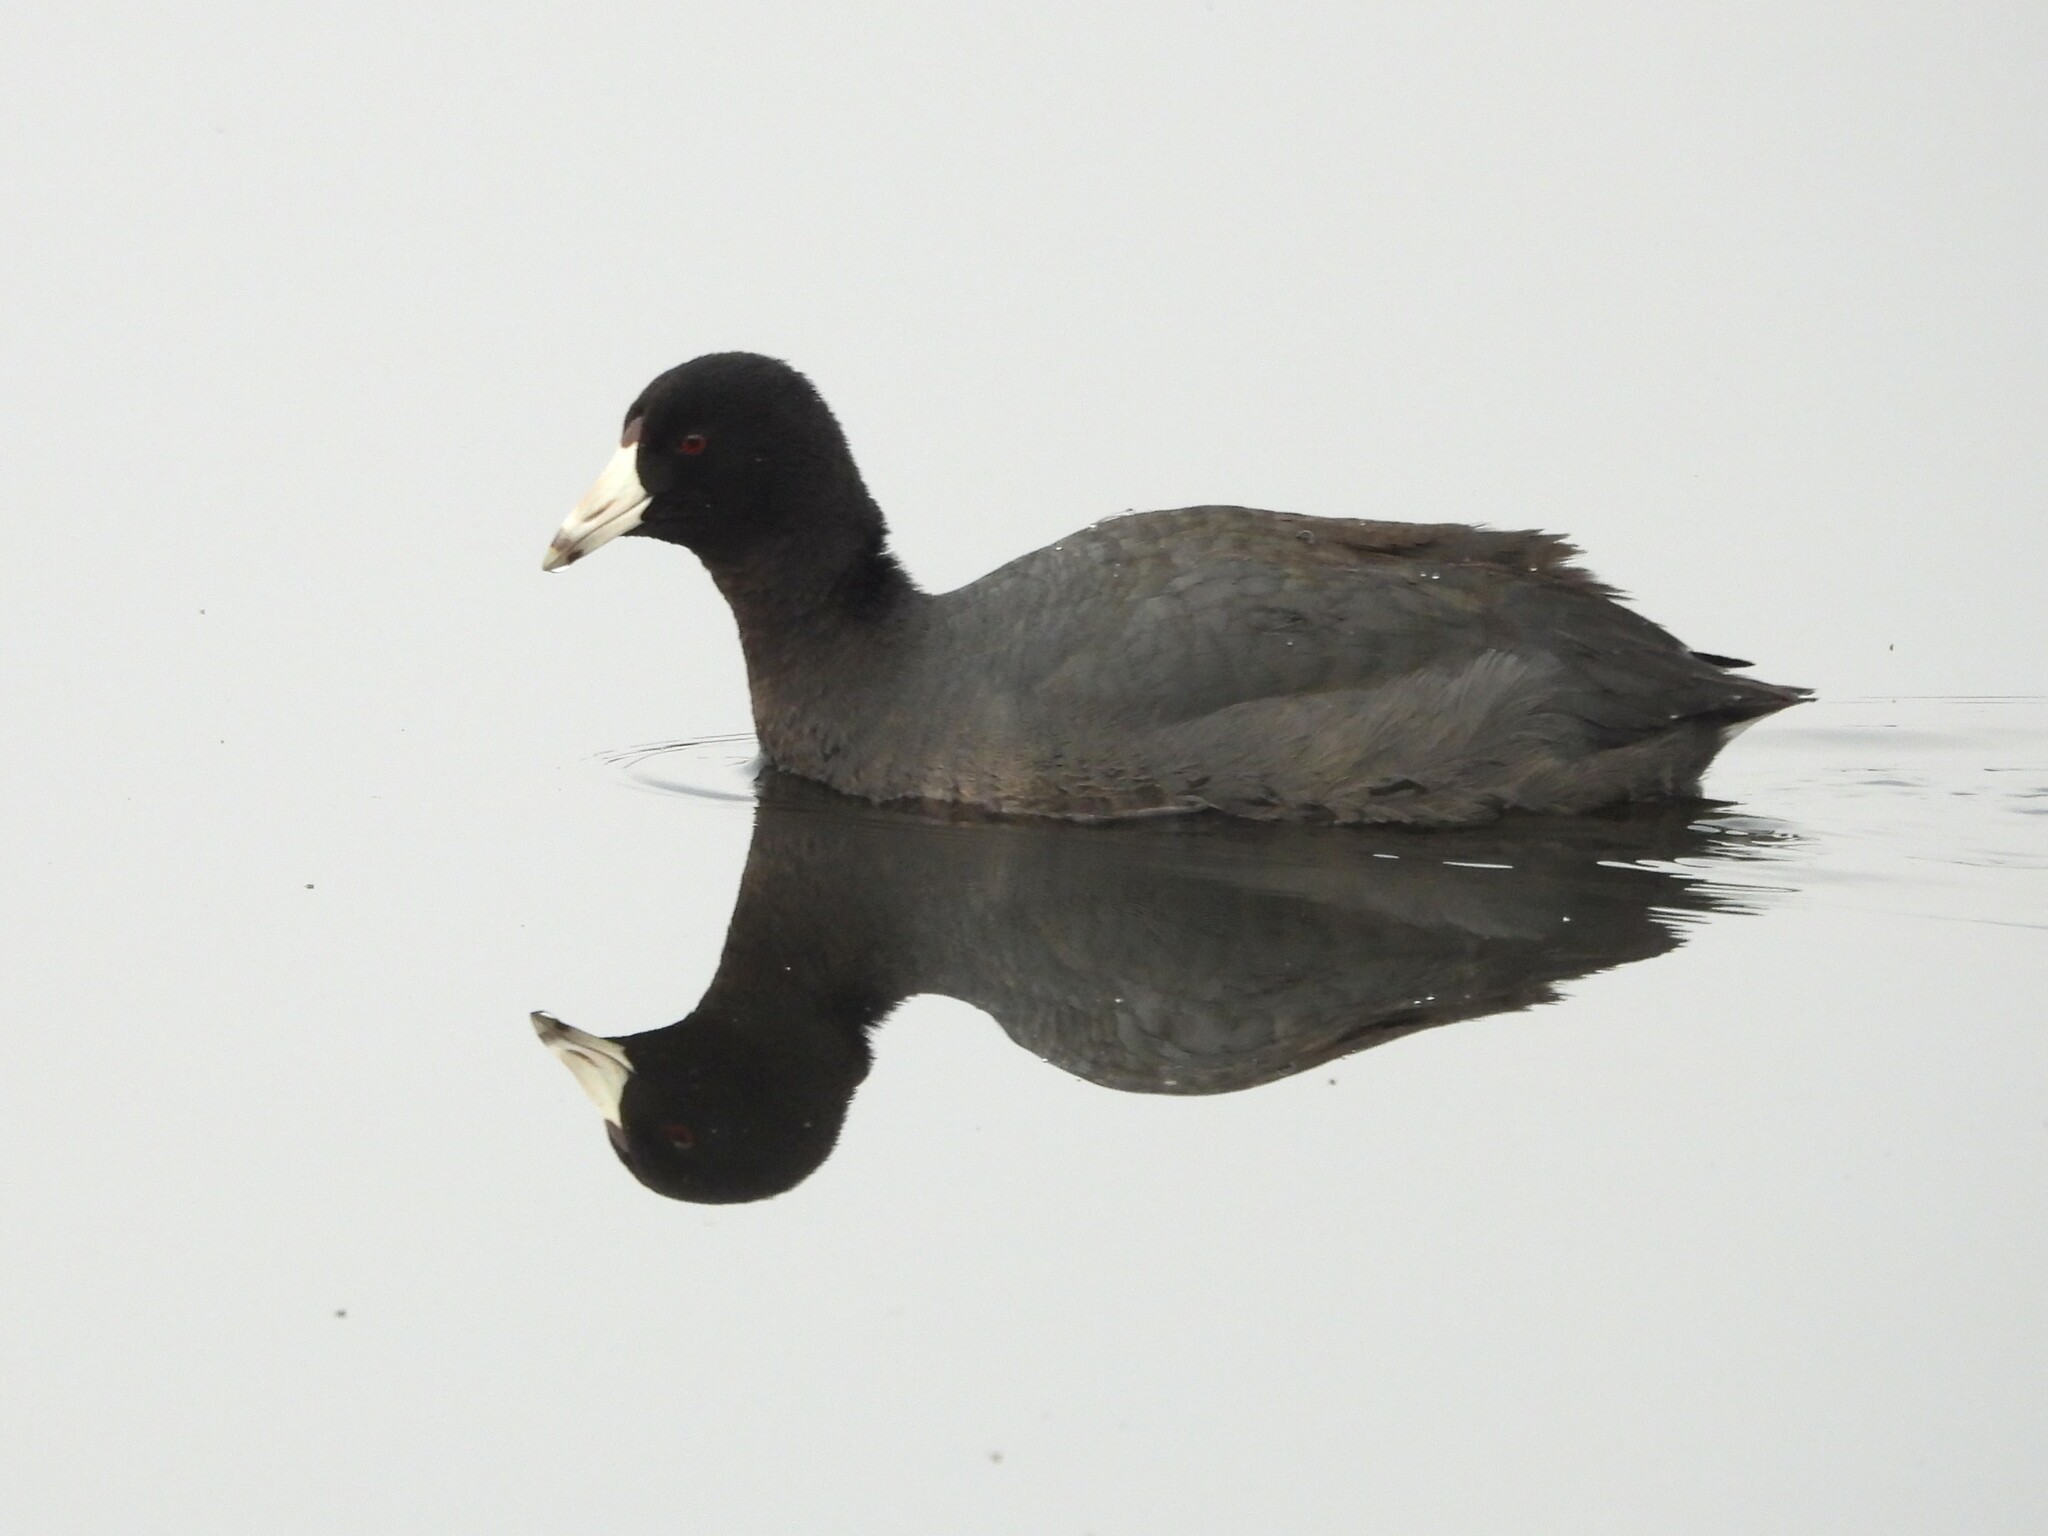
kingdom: Animalia
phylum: Chordata
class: Aves
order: Gruiformes
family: Rallidae
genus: Fulica
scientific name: Fulica americana
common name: American coot
